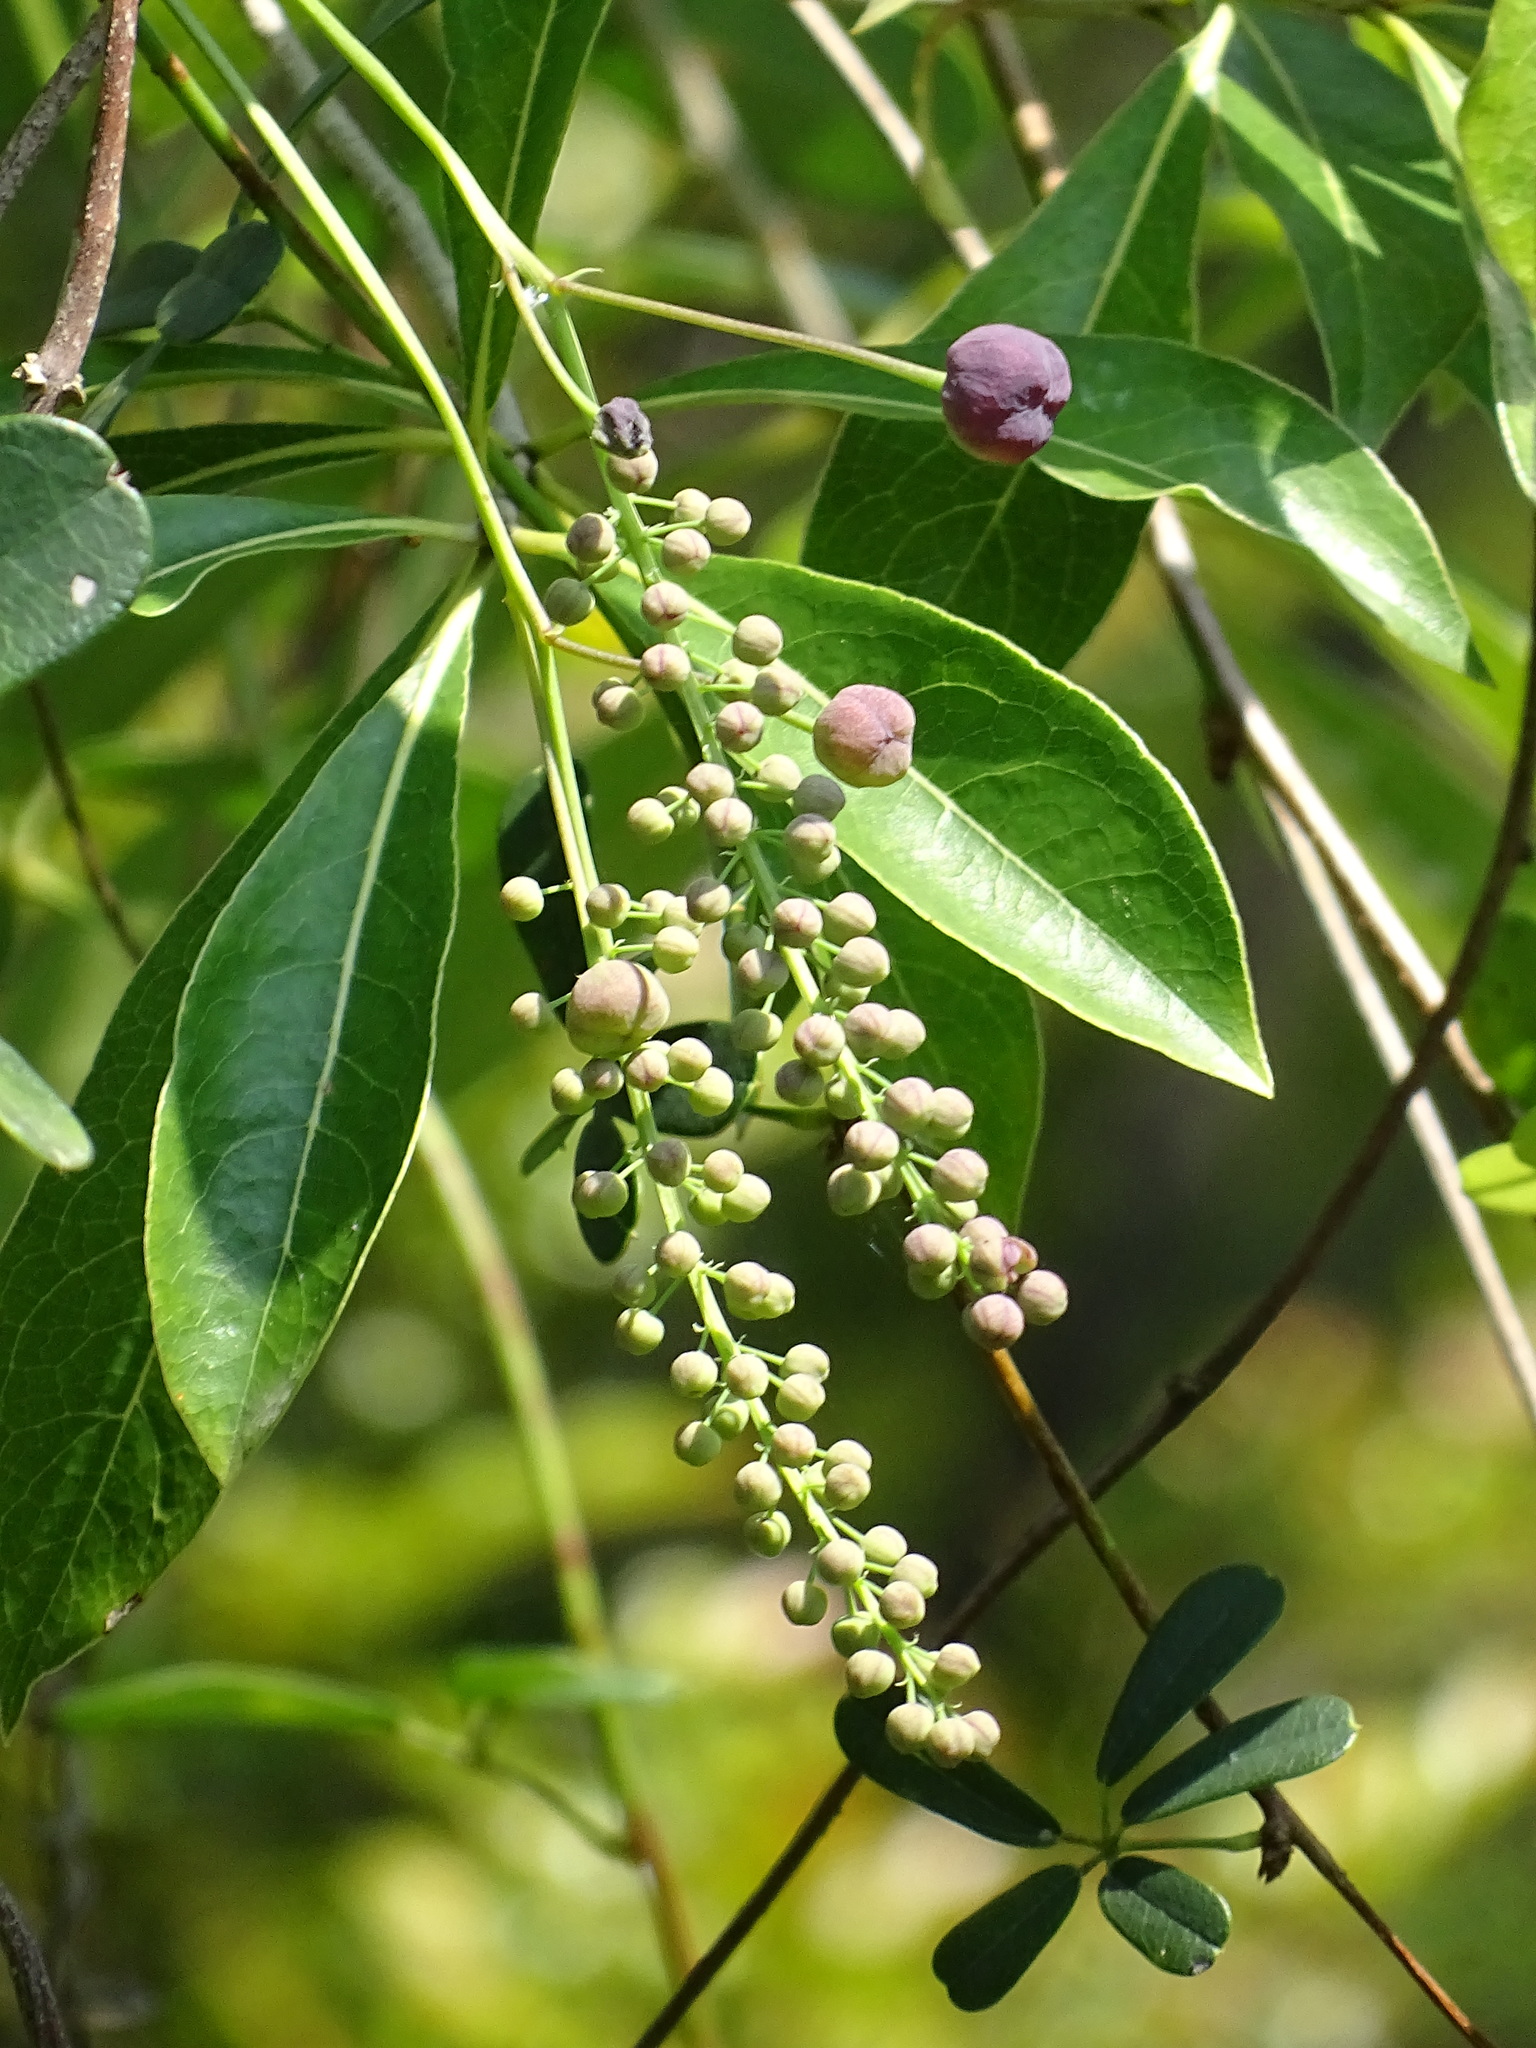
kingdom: Plantae
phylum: Tracheophyta
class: Magnoliopsida
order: Ranunculales
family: Lardizabalaceae
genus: Akebia
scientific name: Akebia longeracemosa
